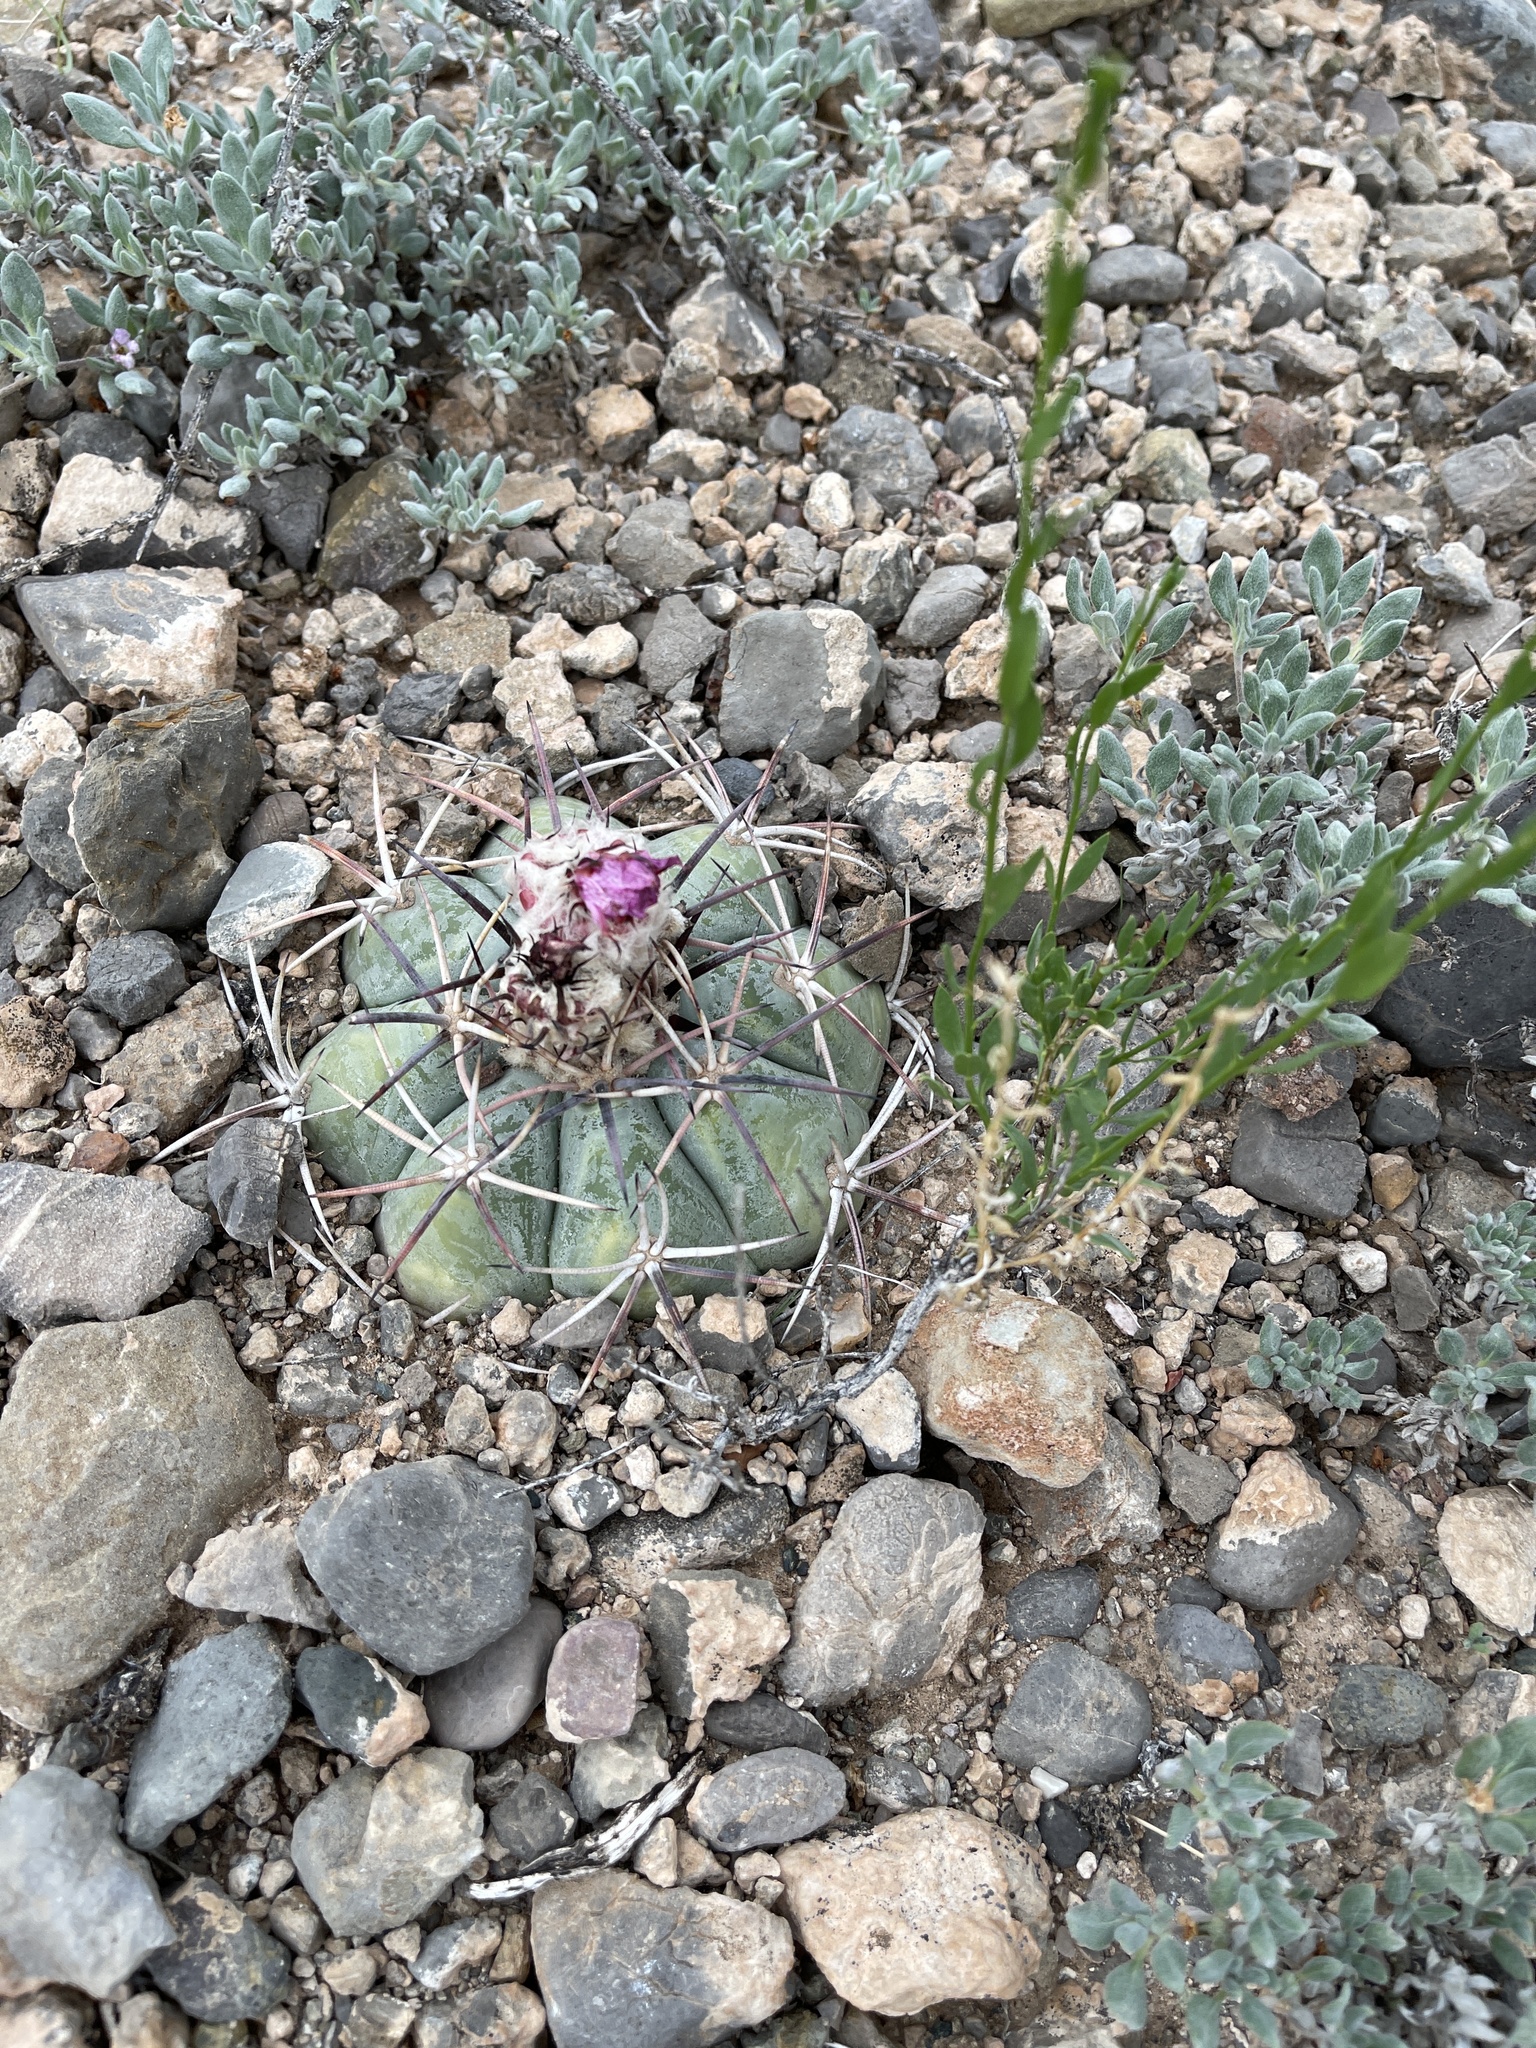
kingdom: Plantae
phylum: Tracheophyta
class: Magnoliopsida
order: Caryophyllales
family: Cactaceae
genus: Echinocactus
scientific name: Echinocactus horizonthalonius
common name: Devilshead
